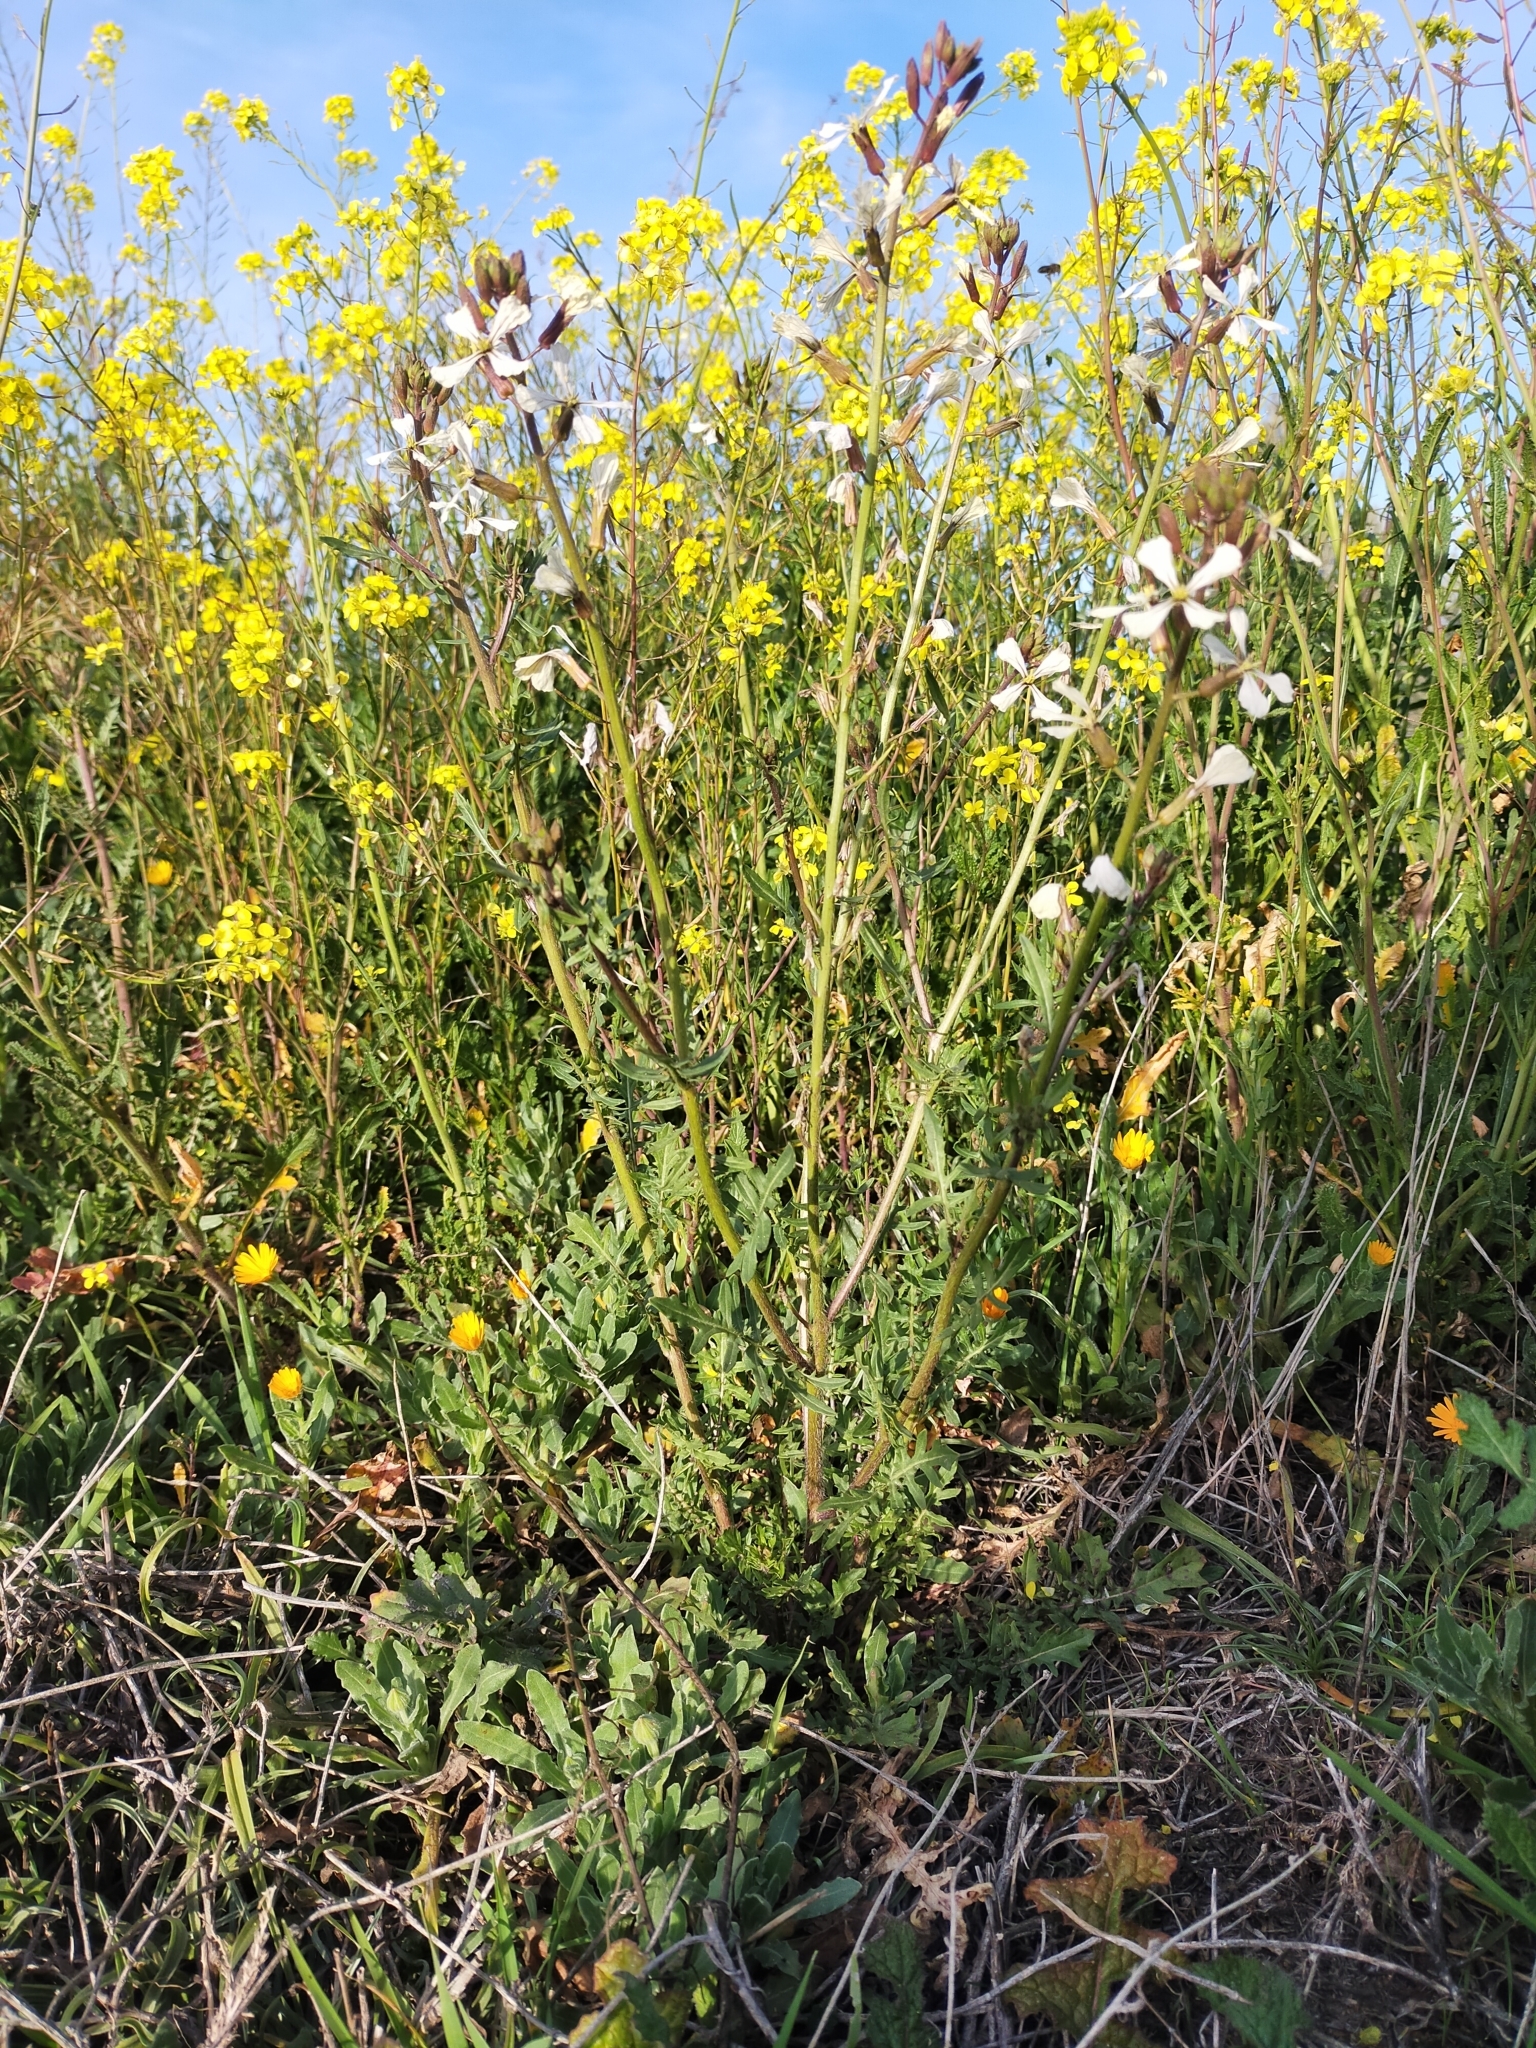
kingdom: Plantae
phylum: Tracheophyta
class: Magnoliopsida
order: Brassicales
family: Brassicaceae
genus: Eruca
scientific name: Eruca vesicaria
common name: Garden rocket
